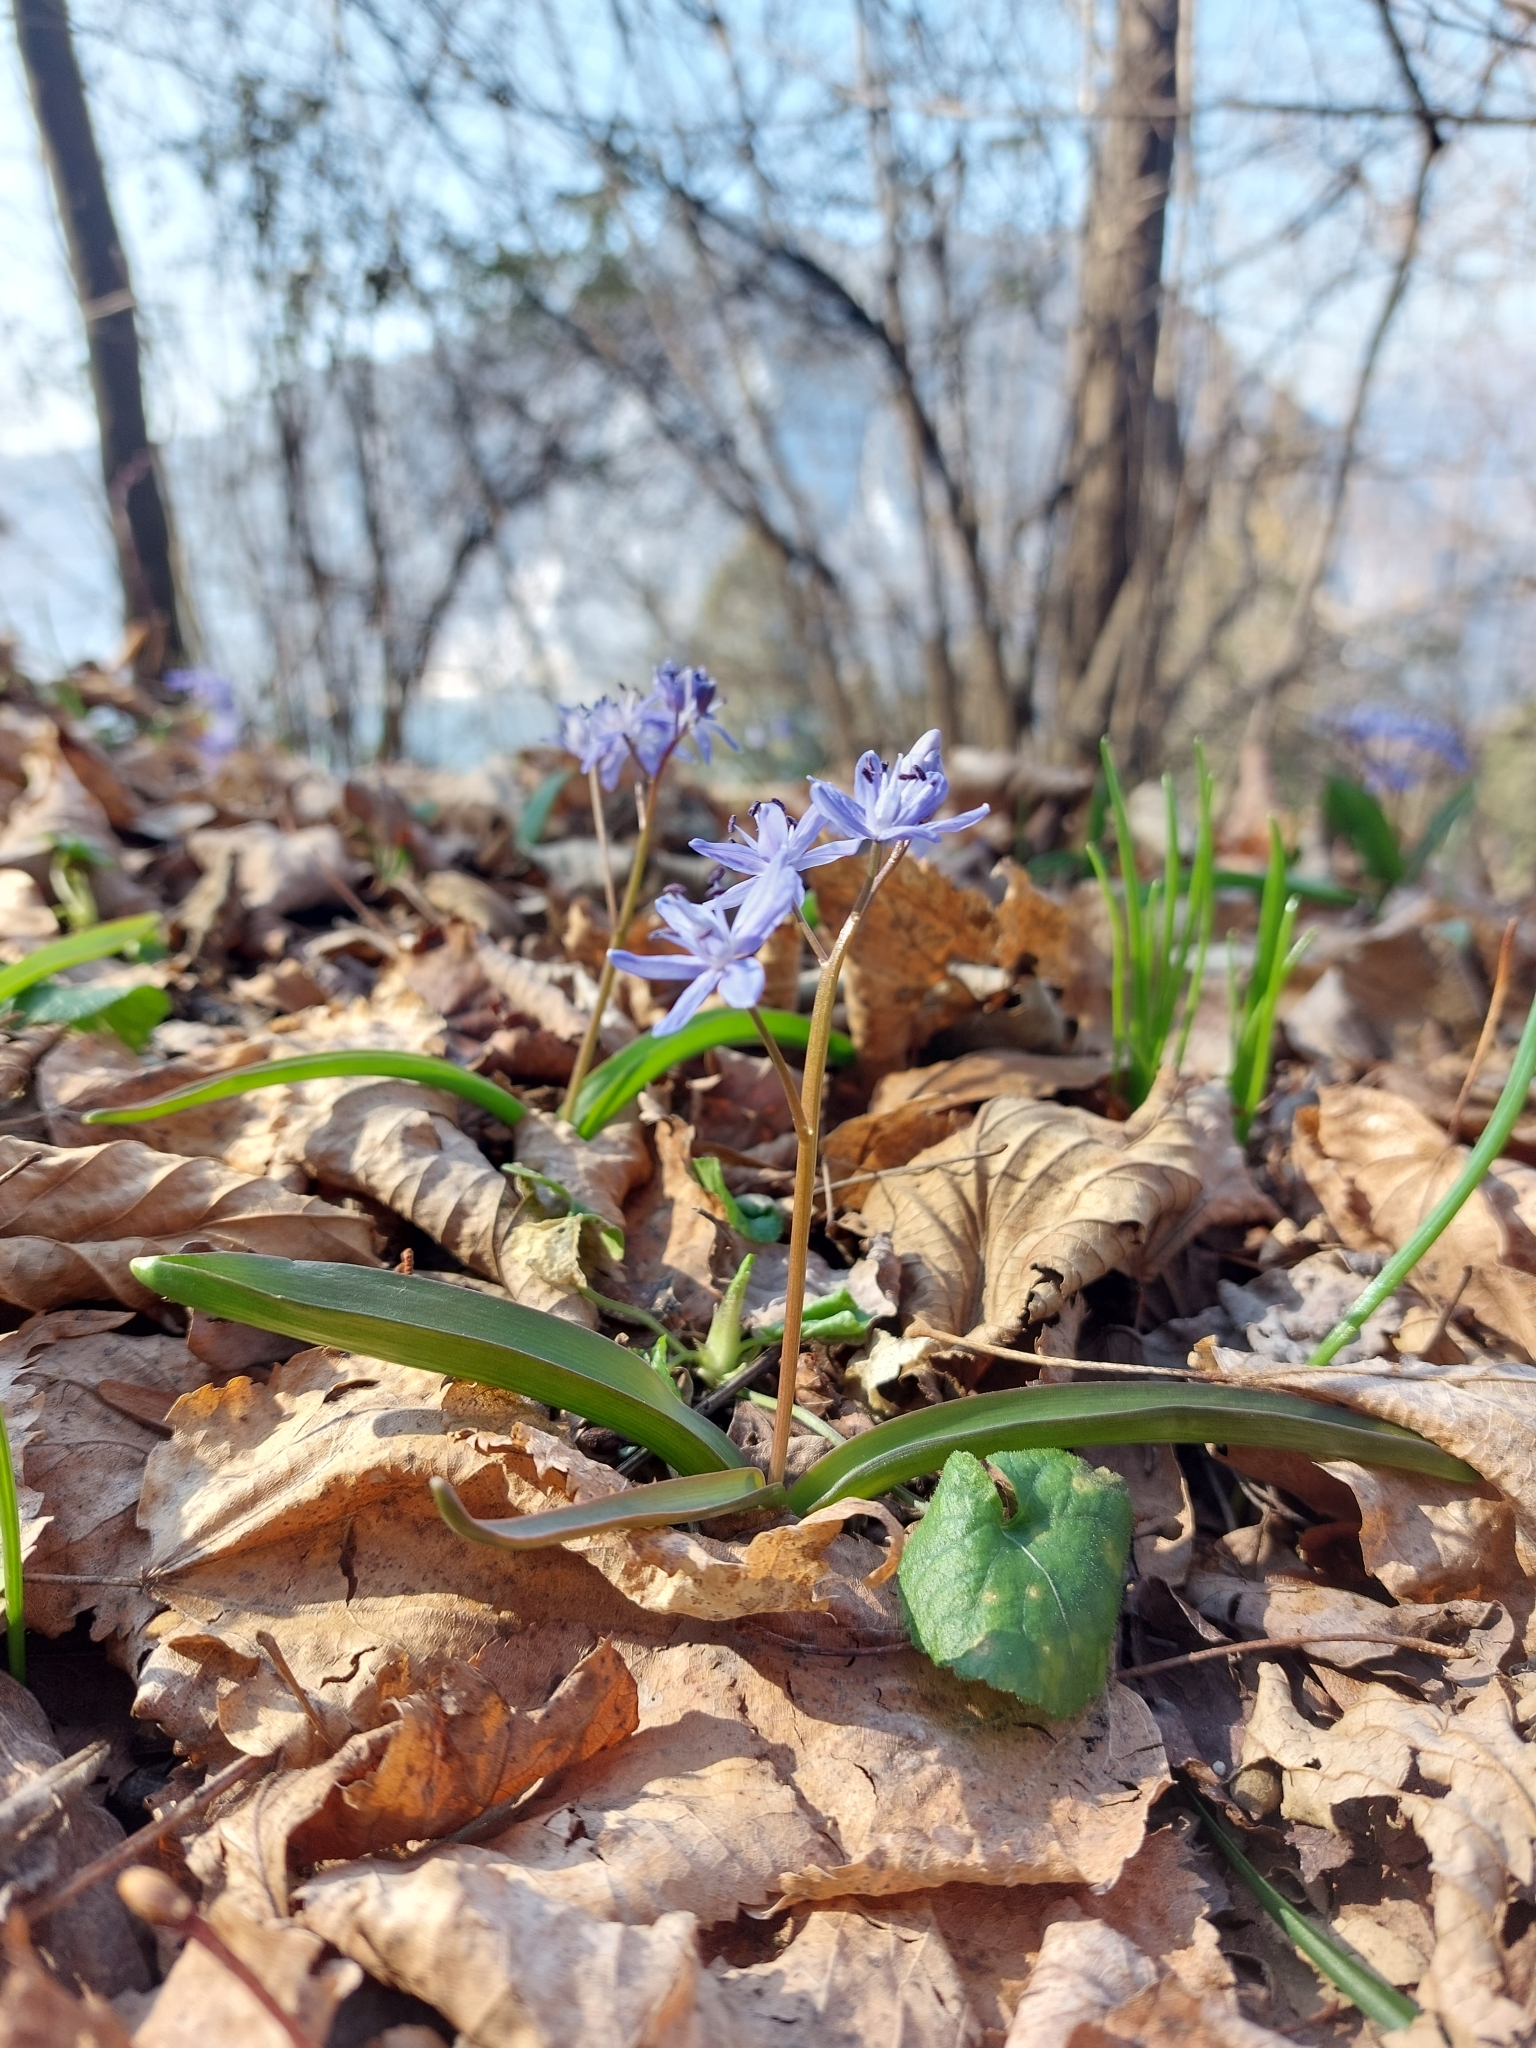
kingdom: Plantae
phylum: Tracheophyta
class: Liliopsida
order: Asparagales
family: Asparagaceae
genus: Scilla
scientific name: Scilla bifolia
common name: Alpine squill
